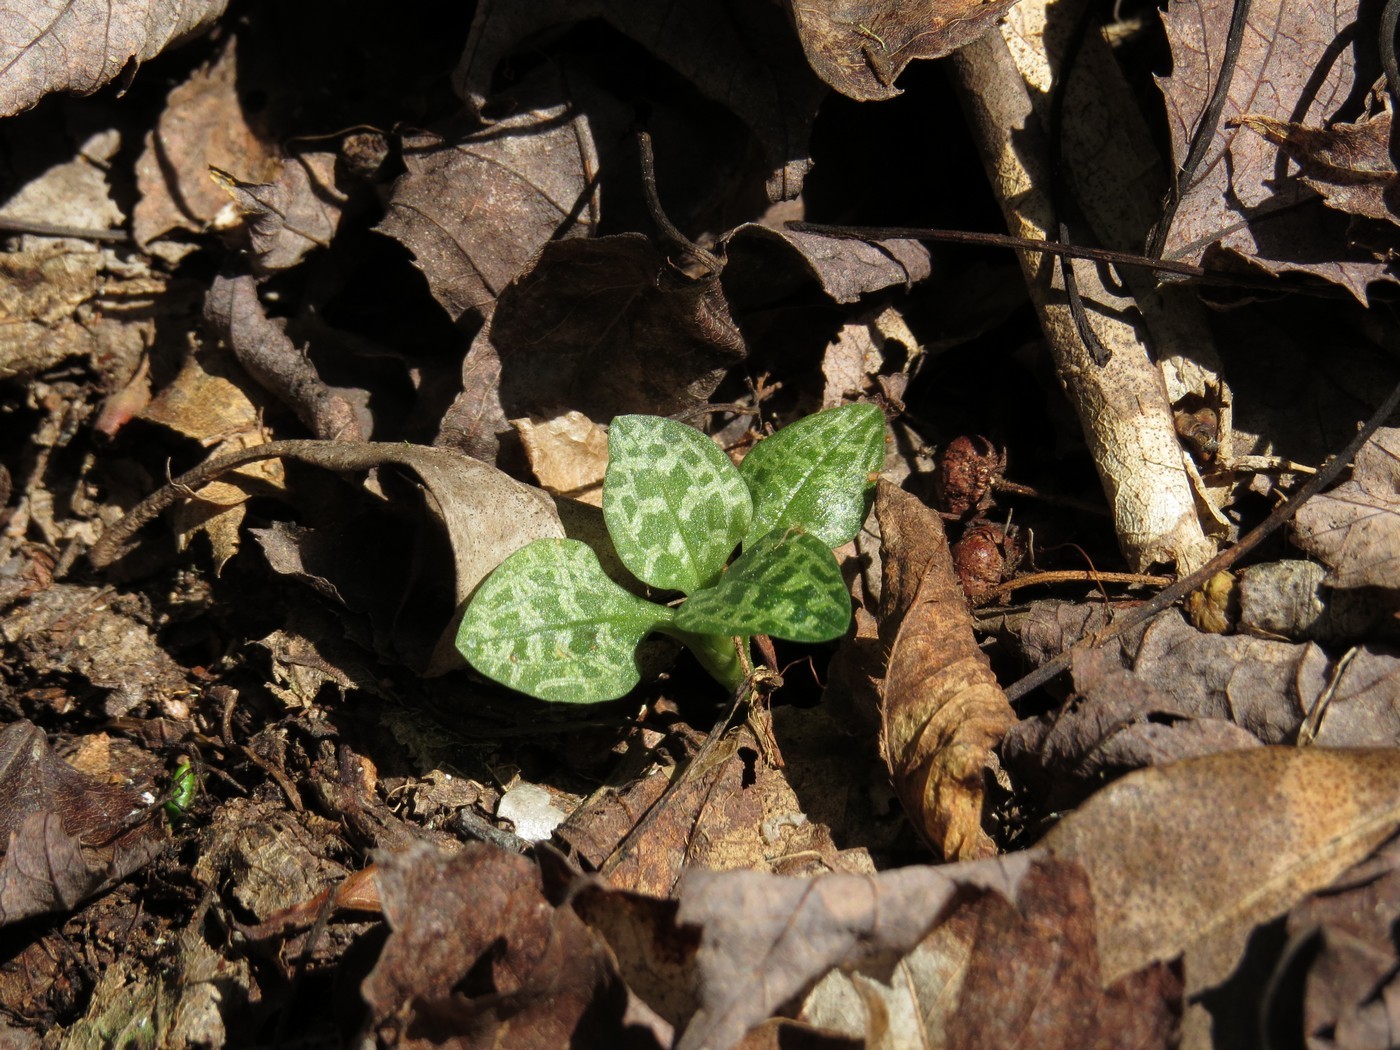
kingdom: Plantae
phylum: Tracheophyta
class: Liliopsida
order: Asparagales
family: Orchidaceae
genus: Goodyera
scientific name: Goodyera repens
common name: Creeping lady's-tresses
